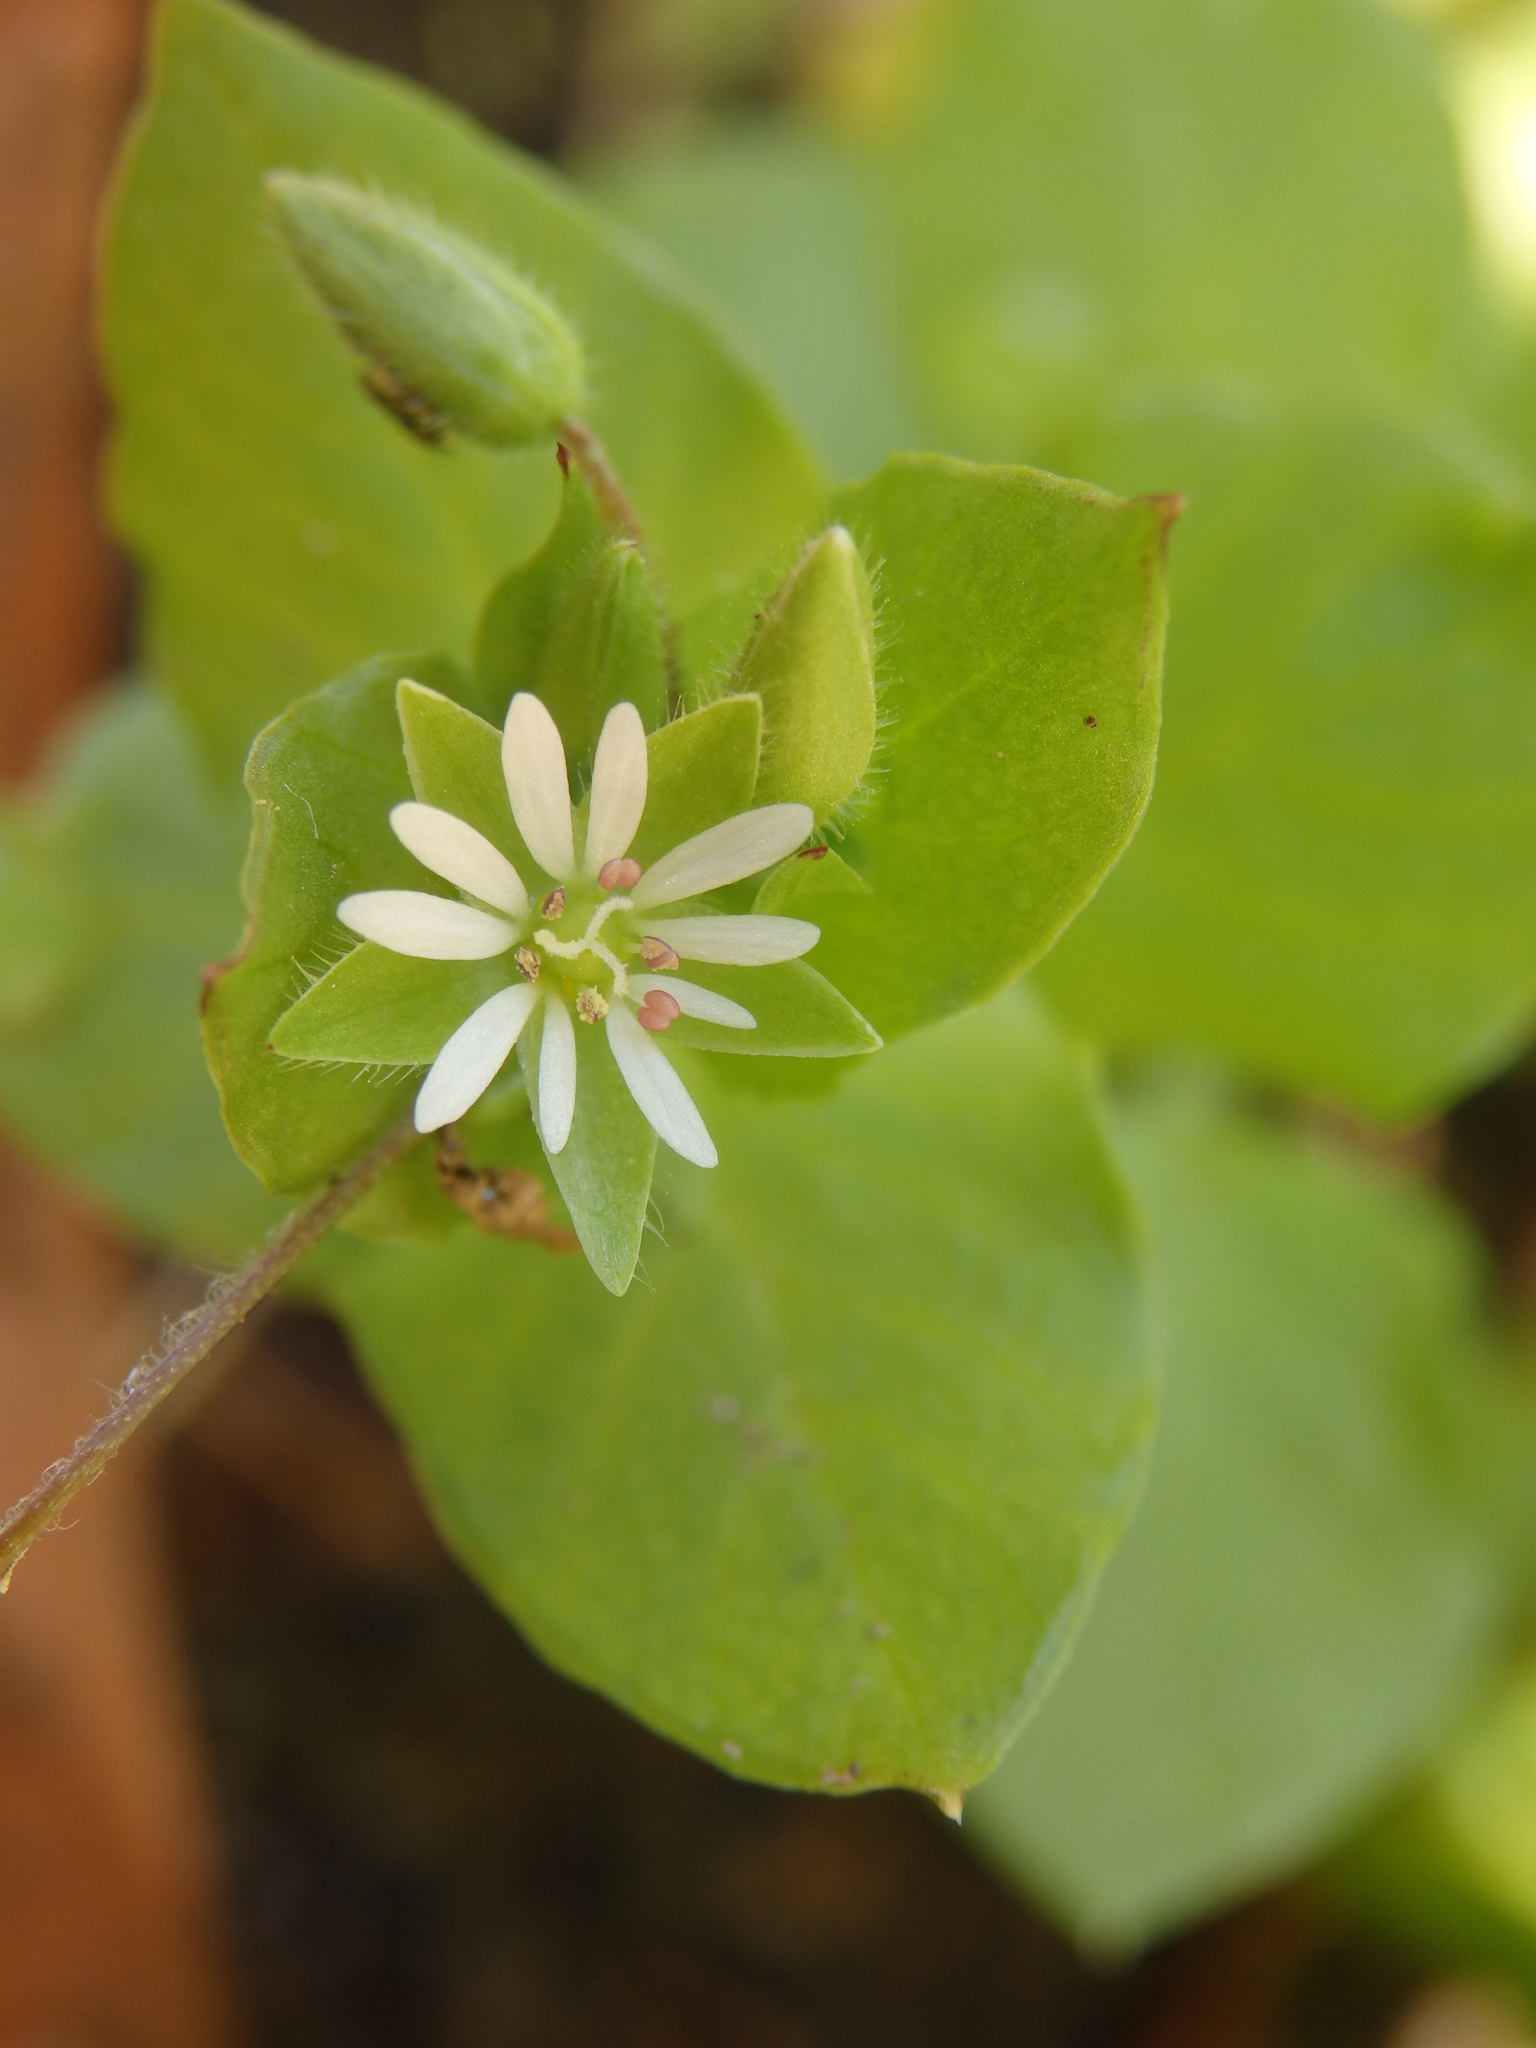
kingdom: Plantae
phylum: Tracheophyta
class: Magnoliopsida
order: Caryophyllales
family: Caryophyllaceae
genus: Stellaria
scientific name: Stellaria media
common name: Common chickweed
